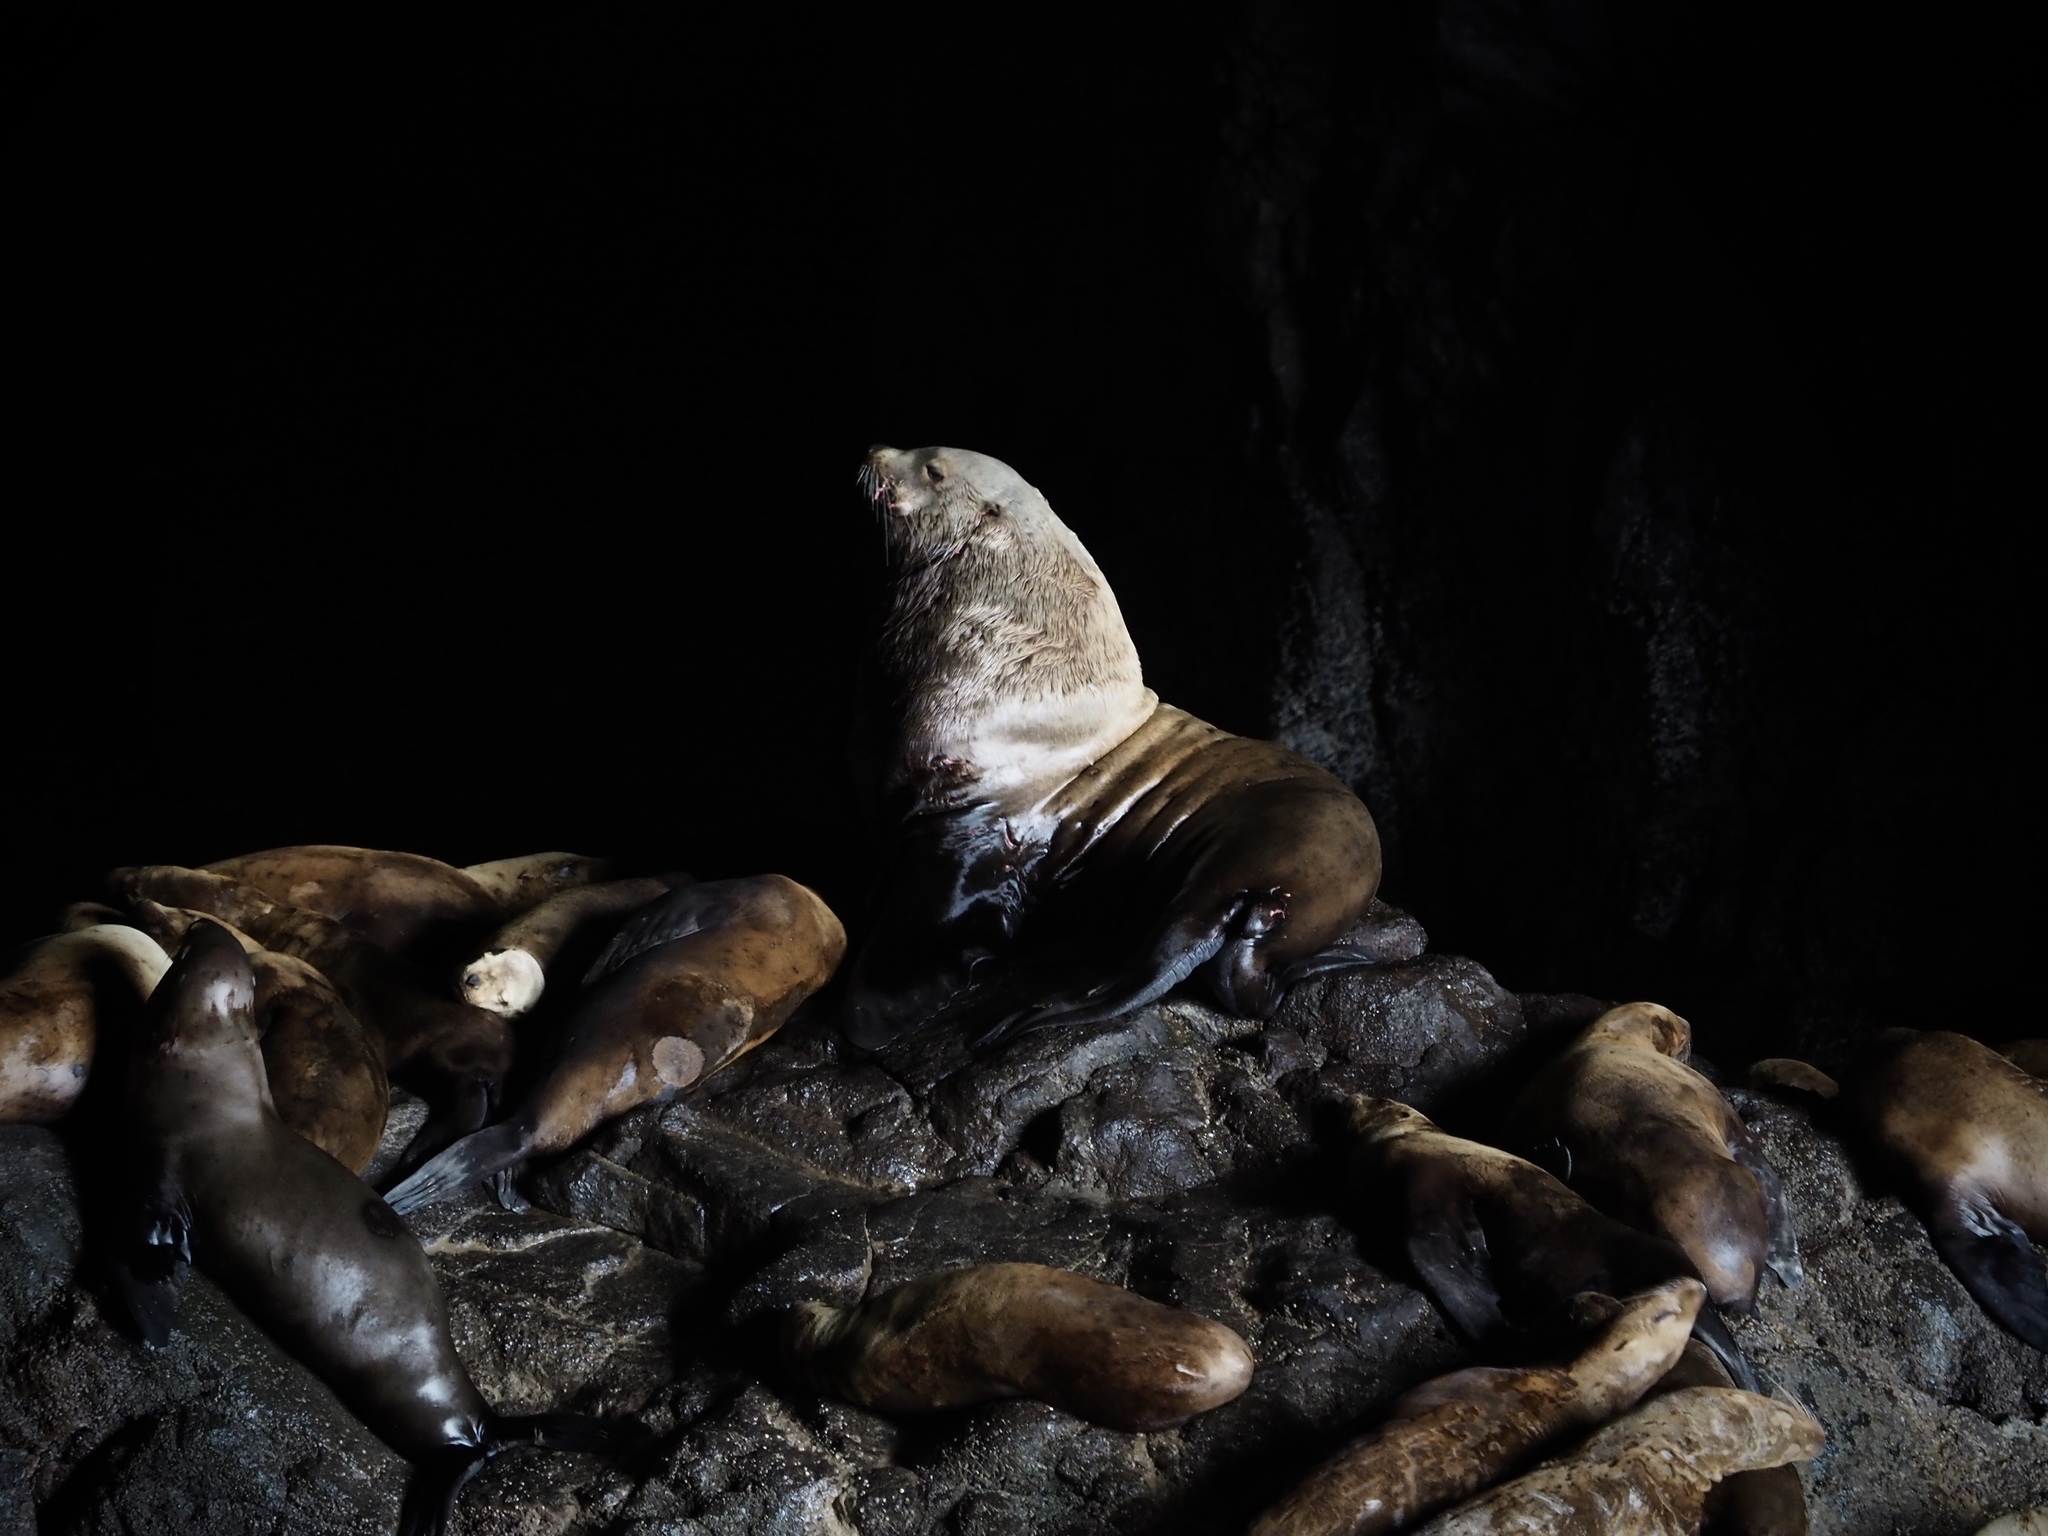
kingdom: Animalia
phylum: Chordata
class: Mammalia
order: Carnivora
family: Otariidae
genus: Eumetopias
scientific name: Eumetopias jubatus
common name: Steller sea lion
